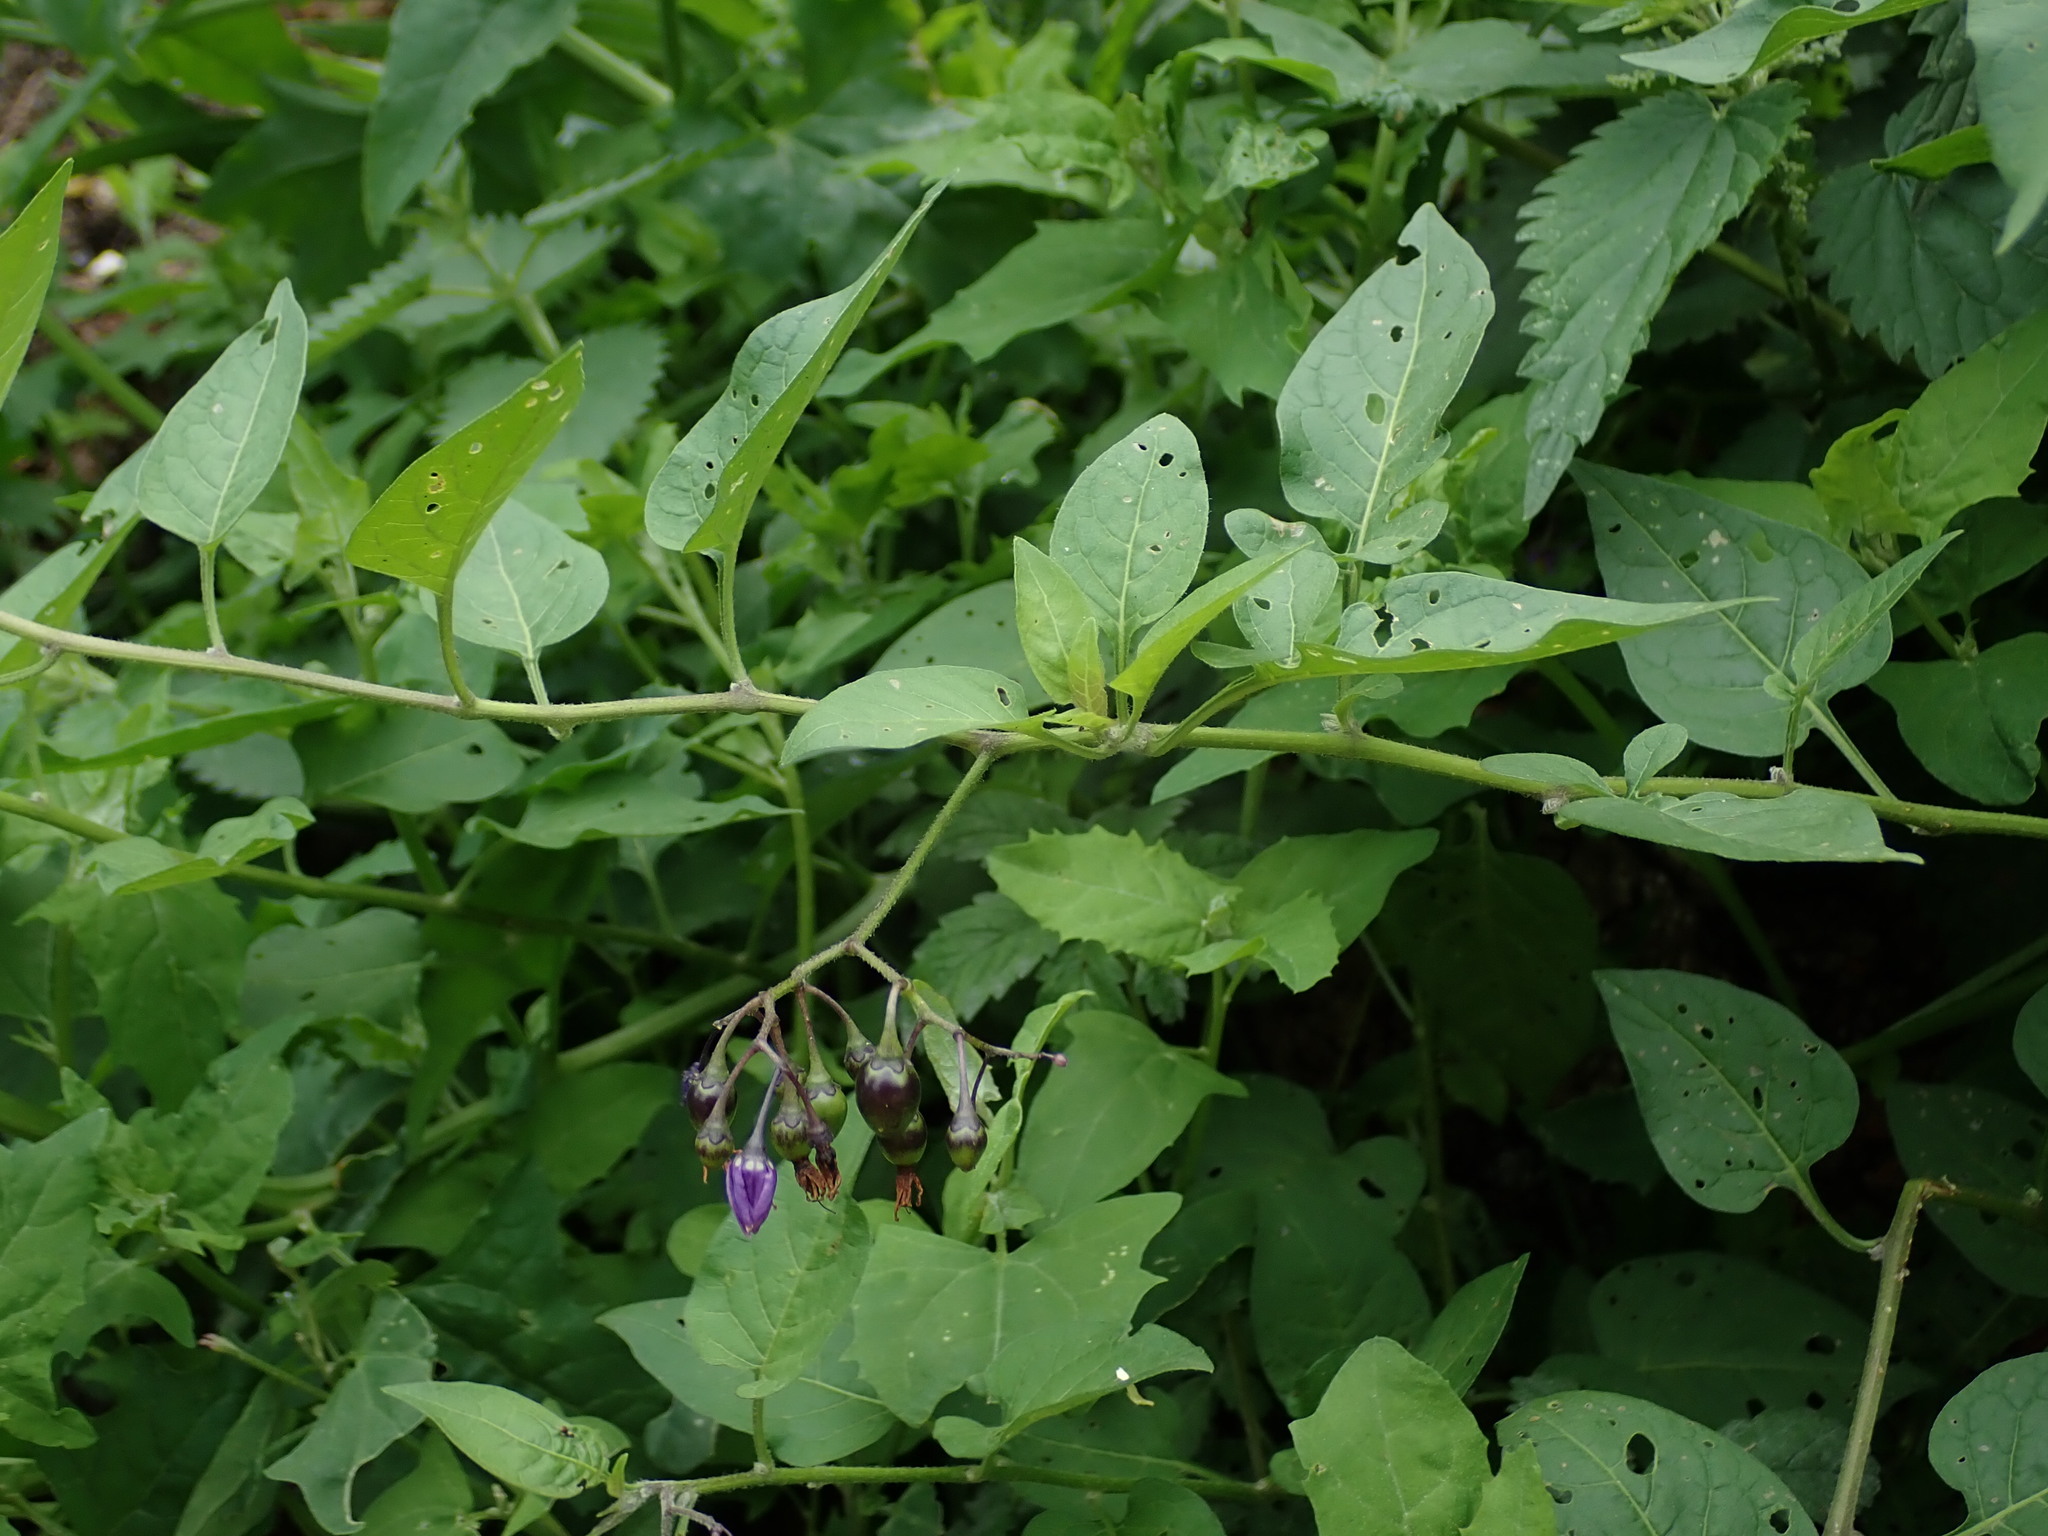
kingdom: Plantae
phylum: Tracheophyta
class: Magnoliopsida
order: Solanales
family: Solanaceae
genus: Solanum
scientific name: Solanum dulcamara
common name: Climbing nightshade
